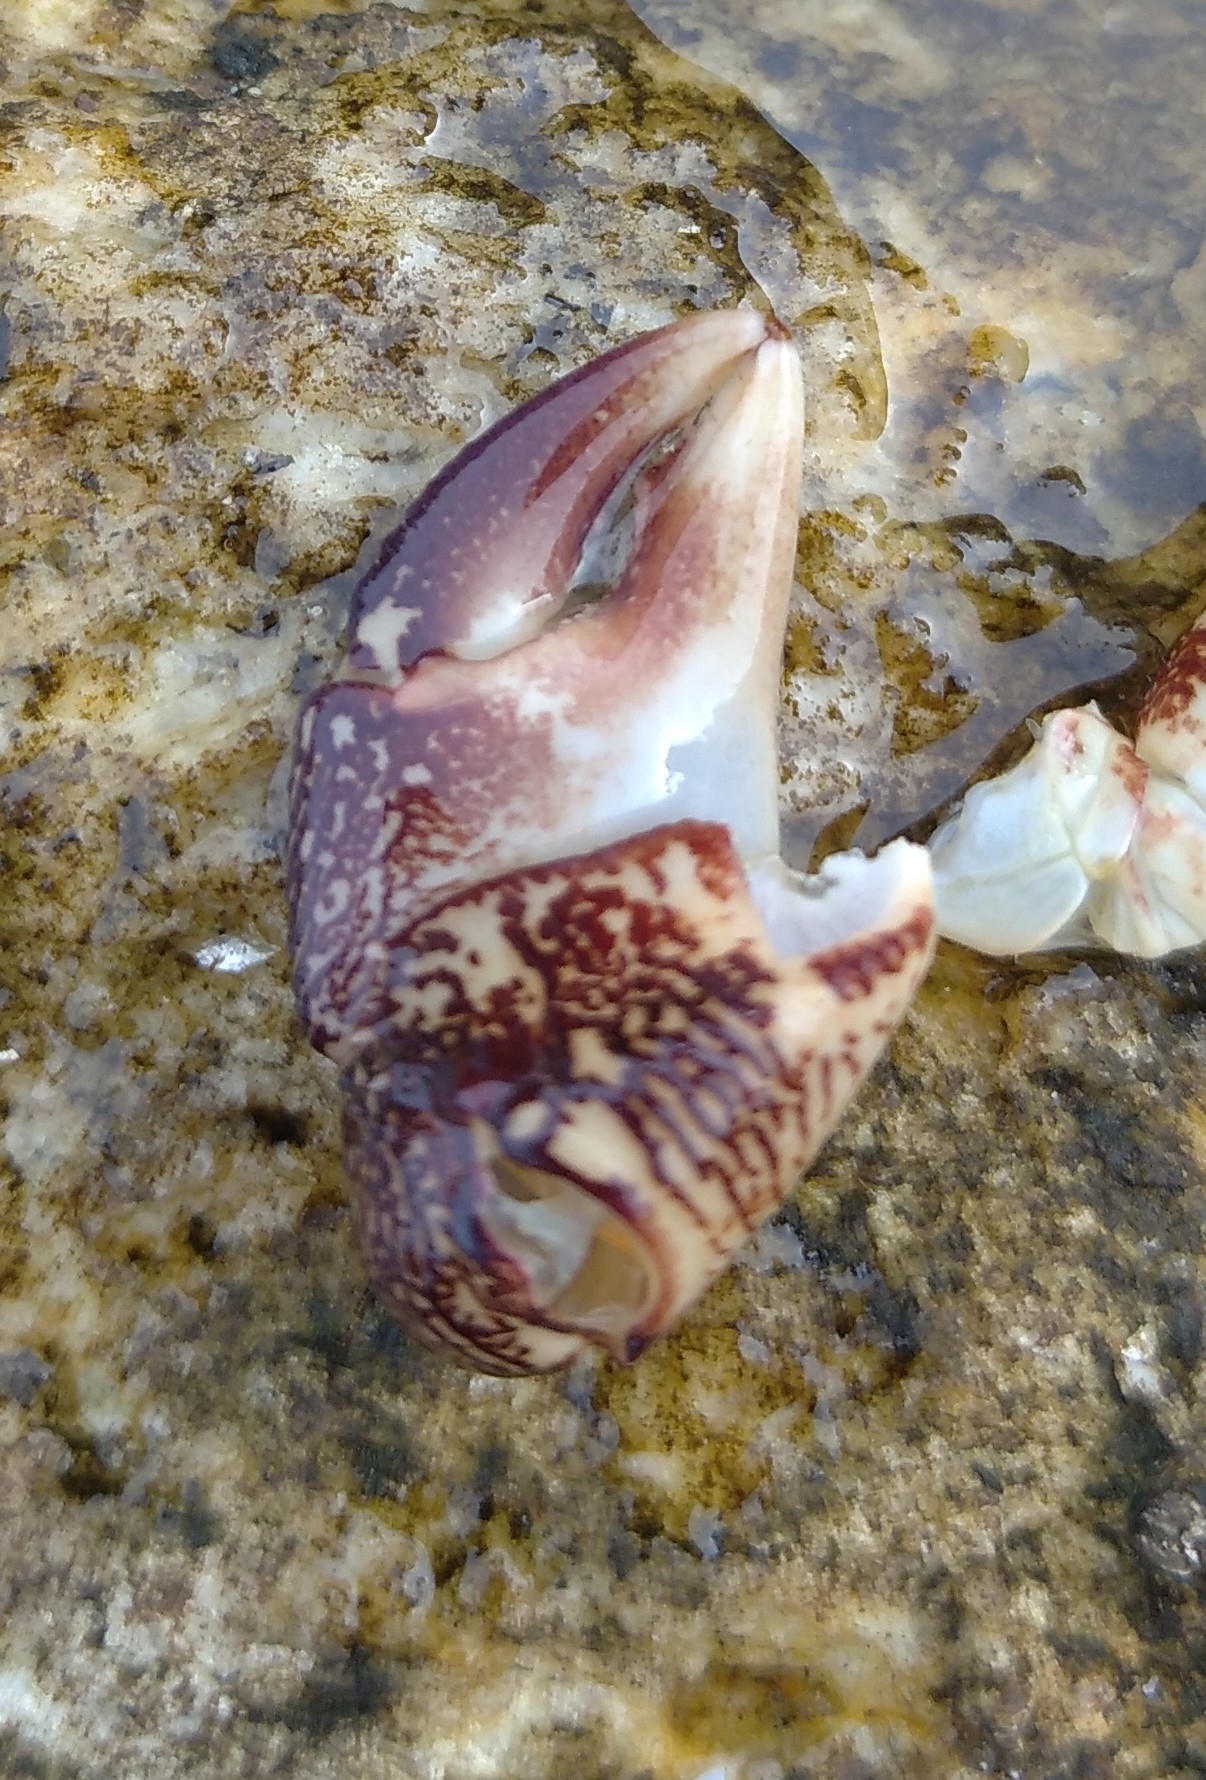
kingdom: Animalia
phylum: Arthropoda
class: Malacostraca
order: Decapoda
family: Grapsidae
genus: Pachygrapsus
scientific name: Pachygrapsus marmoratus
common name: Marbled rock crab
